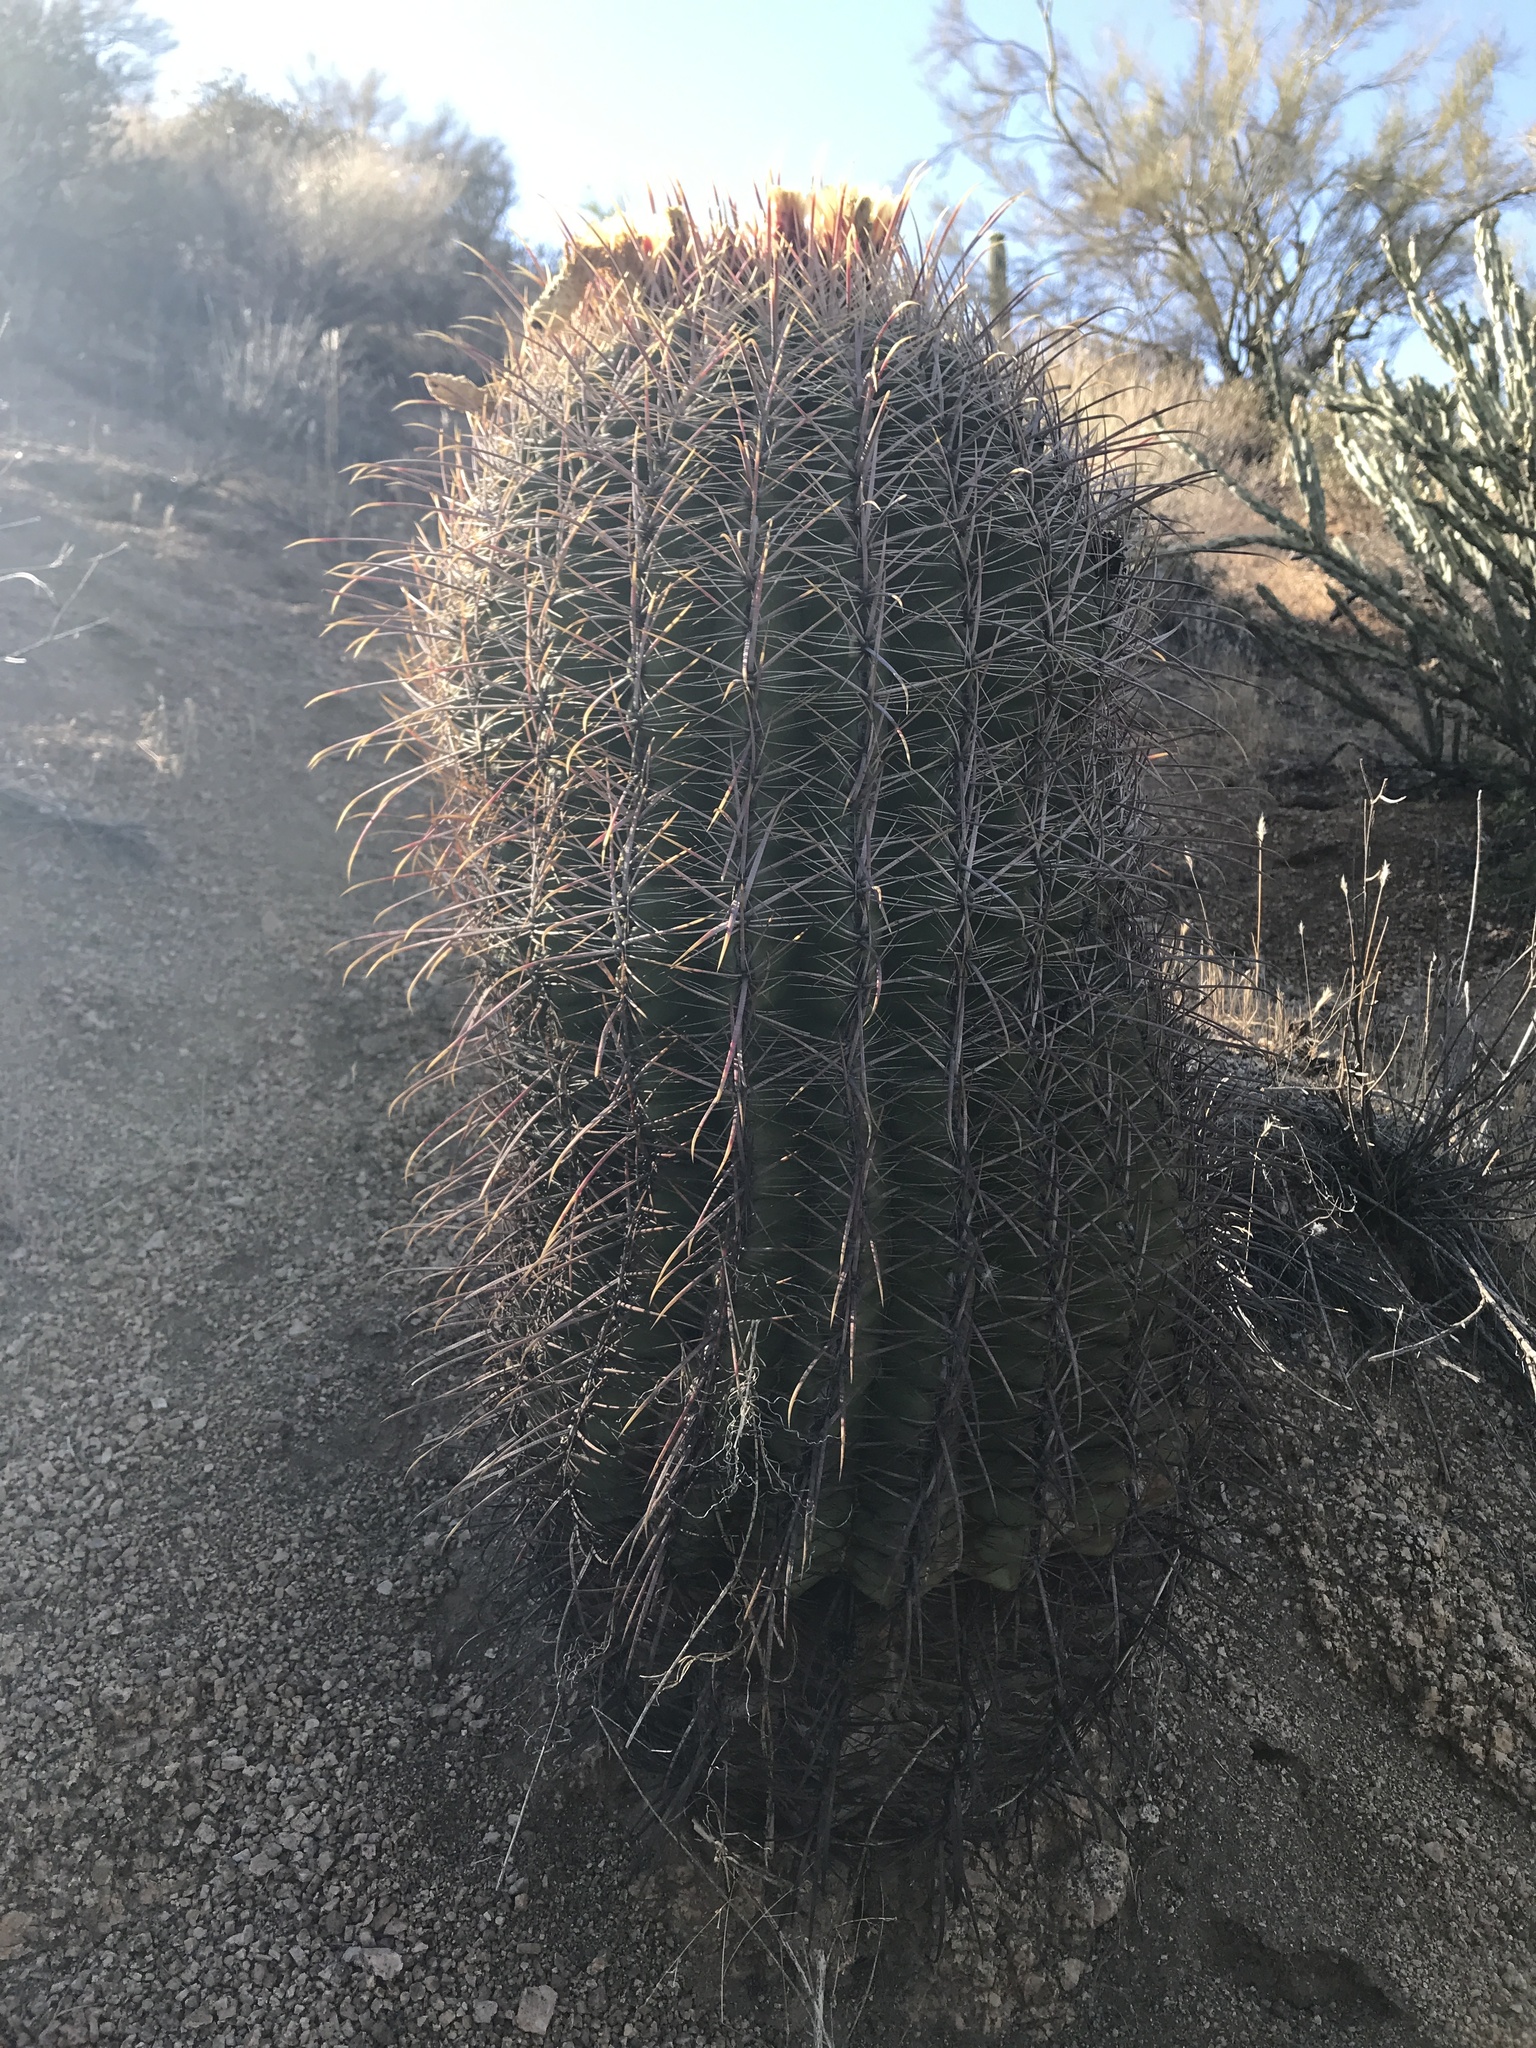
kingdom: Plantae
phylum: Tracheophyta
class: Magnoliopsida
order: Caryophyllales
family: Cactaceae
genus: Ferocactus
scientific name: Ferocactus cylindraceus
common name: California barrel cactus
